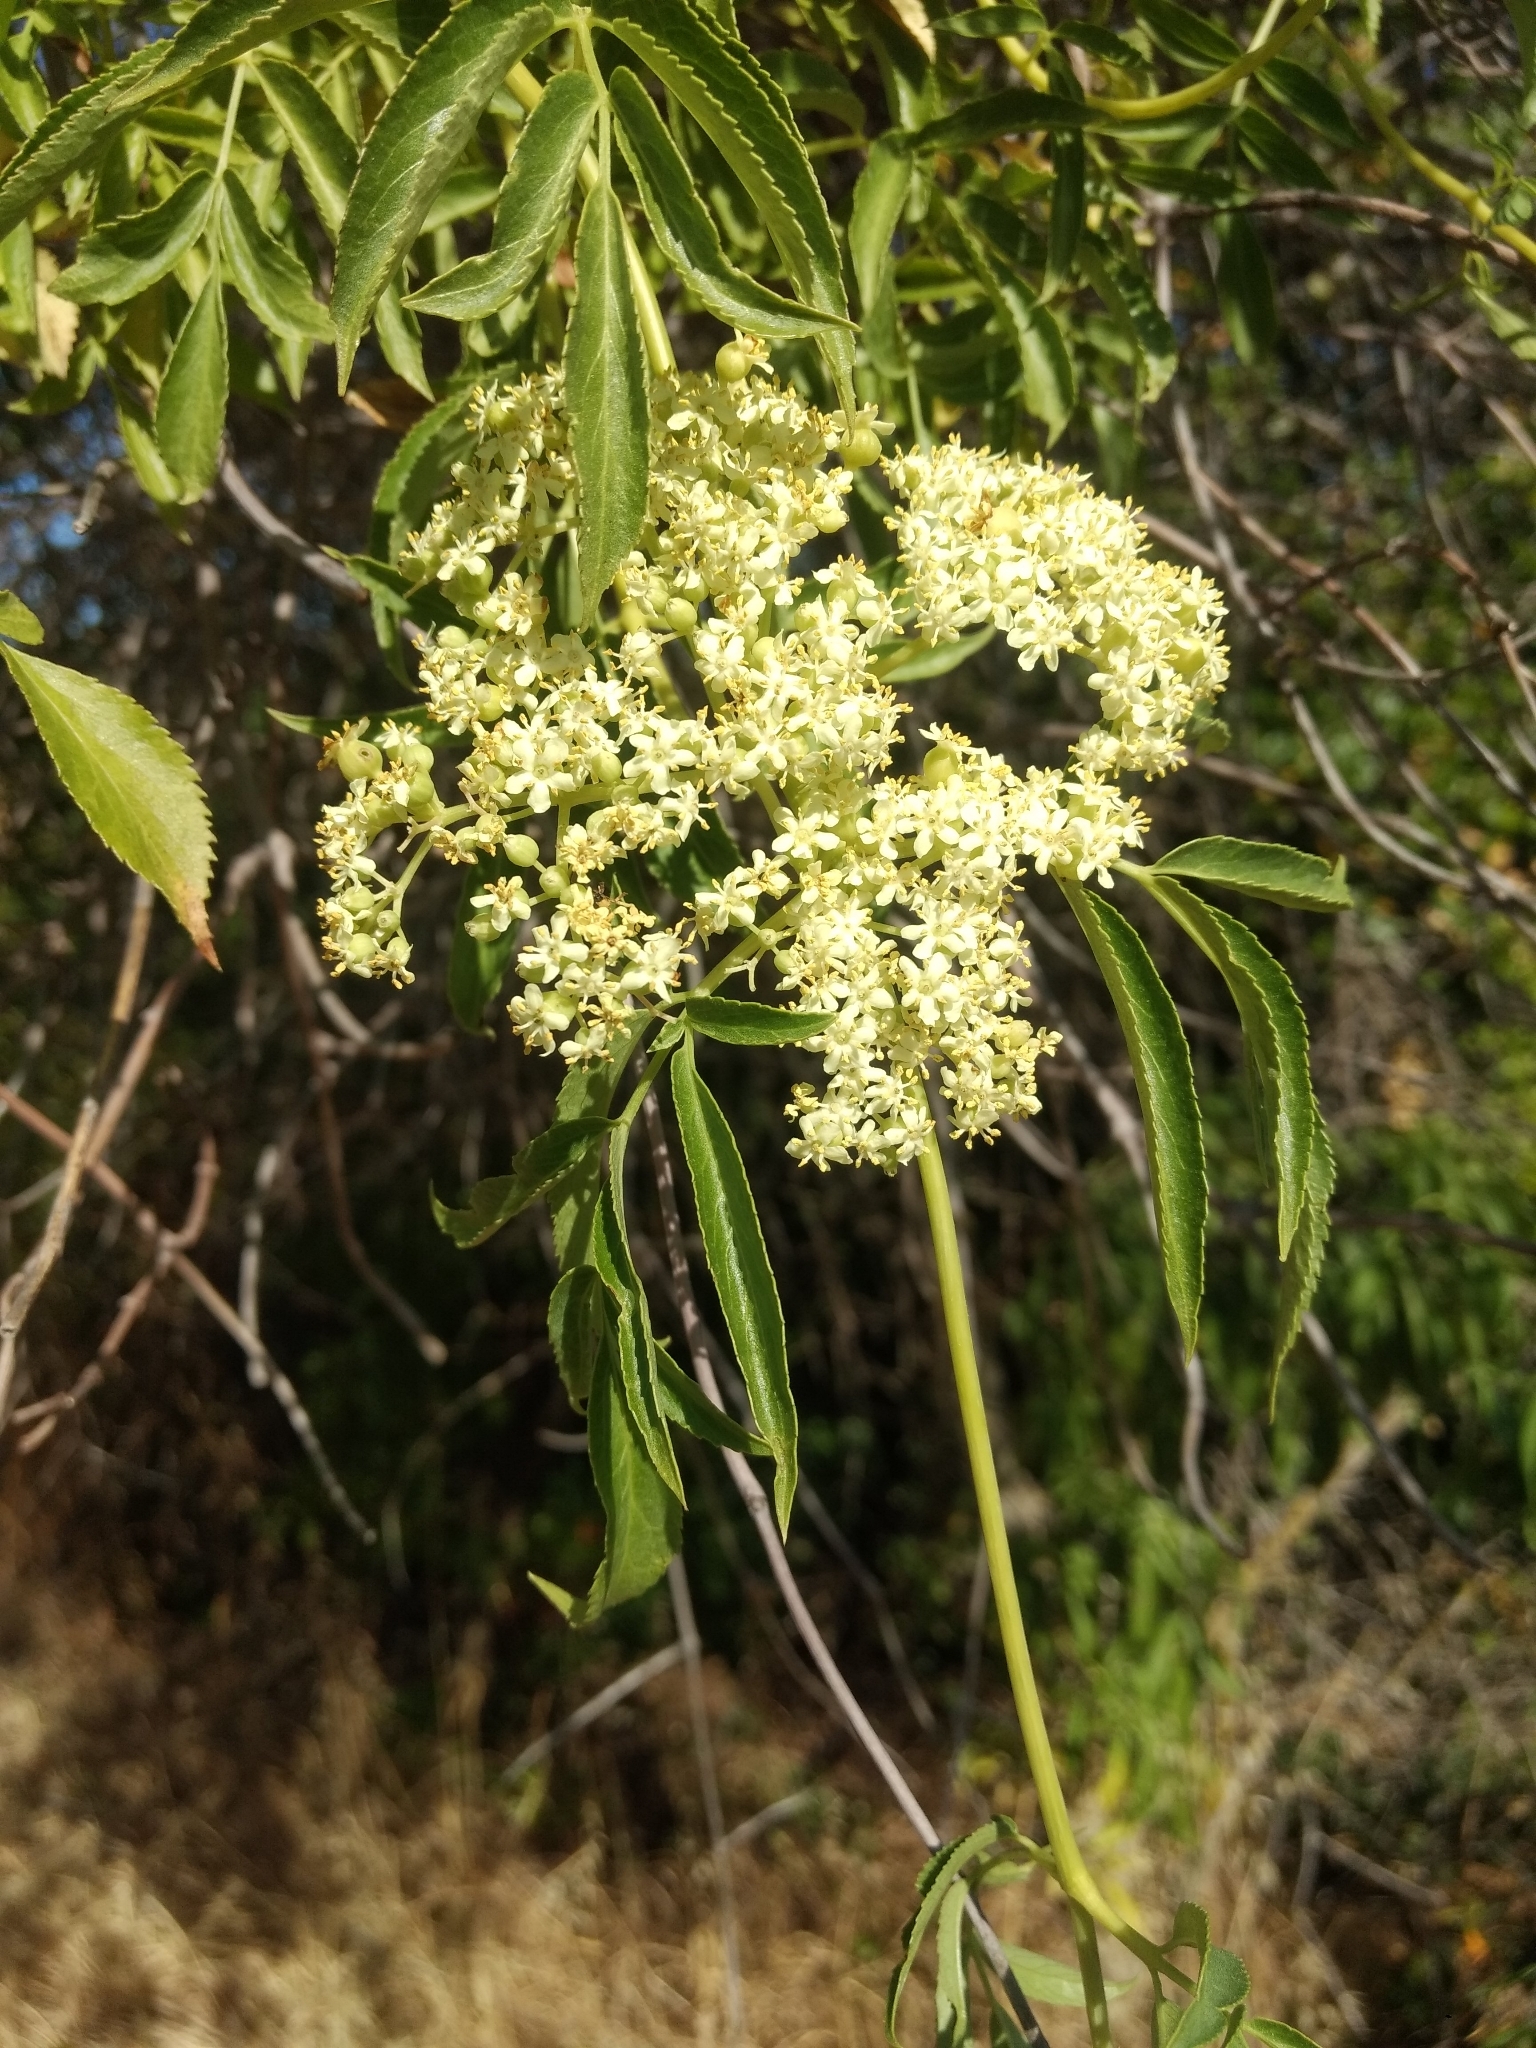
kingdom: Plantae
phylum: Tracheophyta
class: Magnoliopsida
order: Dipsacales
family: Viburnaceae
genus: Sambucus
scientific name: Sambucus cerulea
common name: Blue elder
